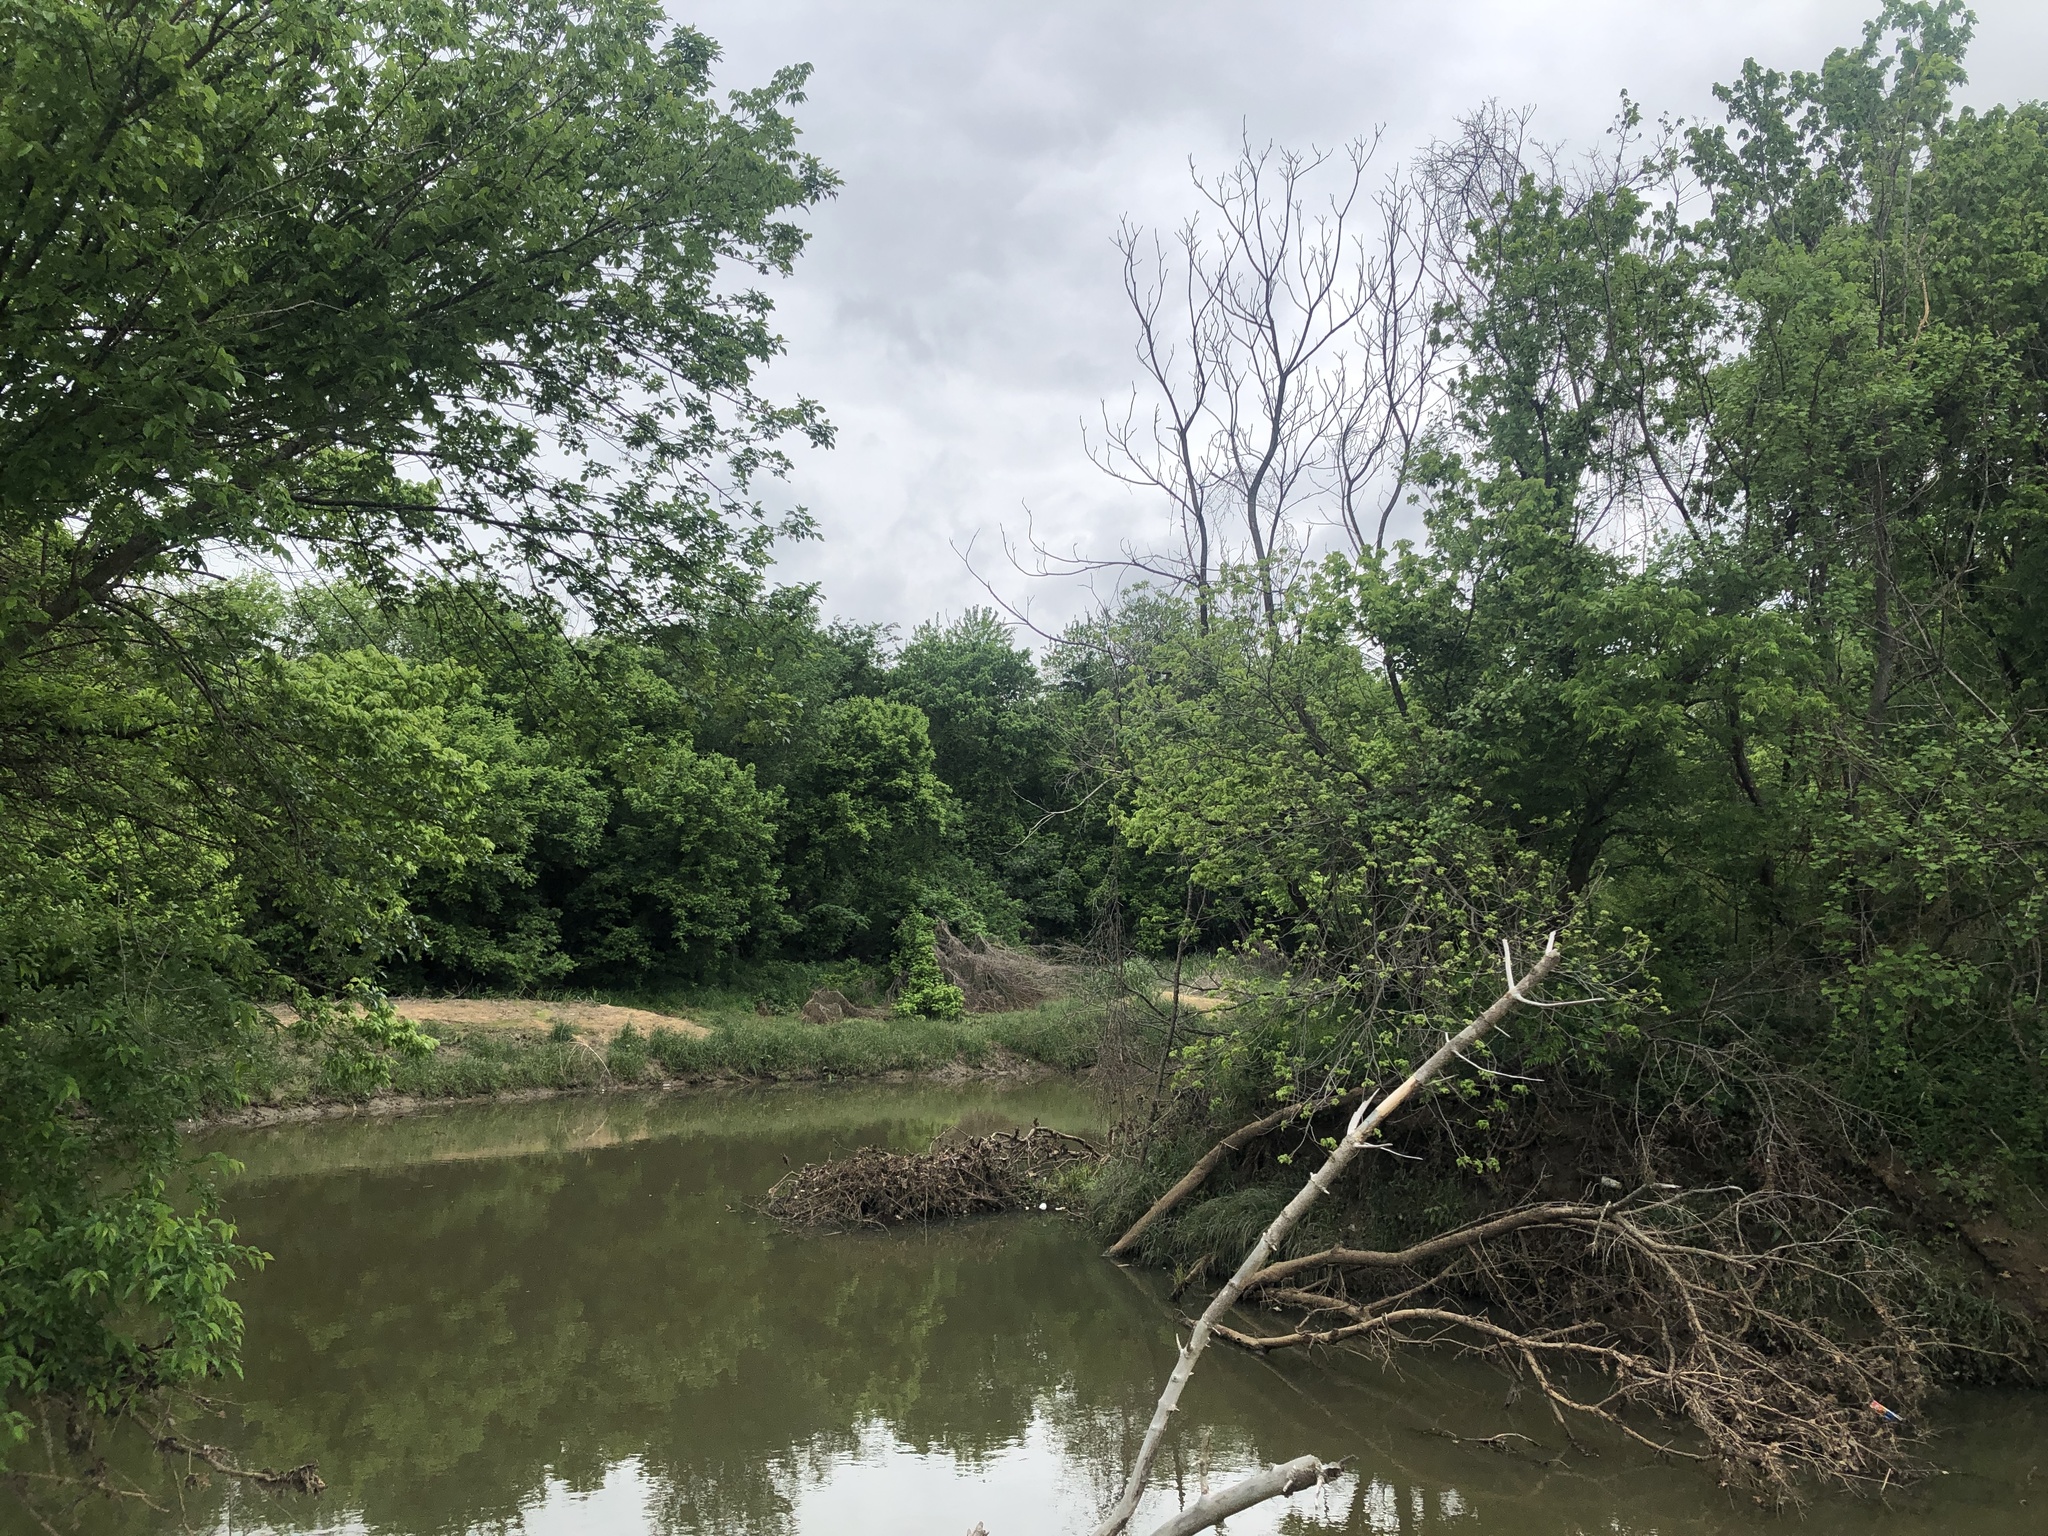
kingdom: Animalia
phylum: Chordata
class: Aves
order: Passeriformes
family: Cardinalidae
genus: Passerina
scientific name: Passerina cyanea
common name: Indigo bunting
